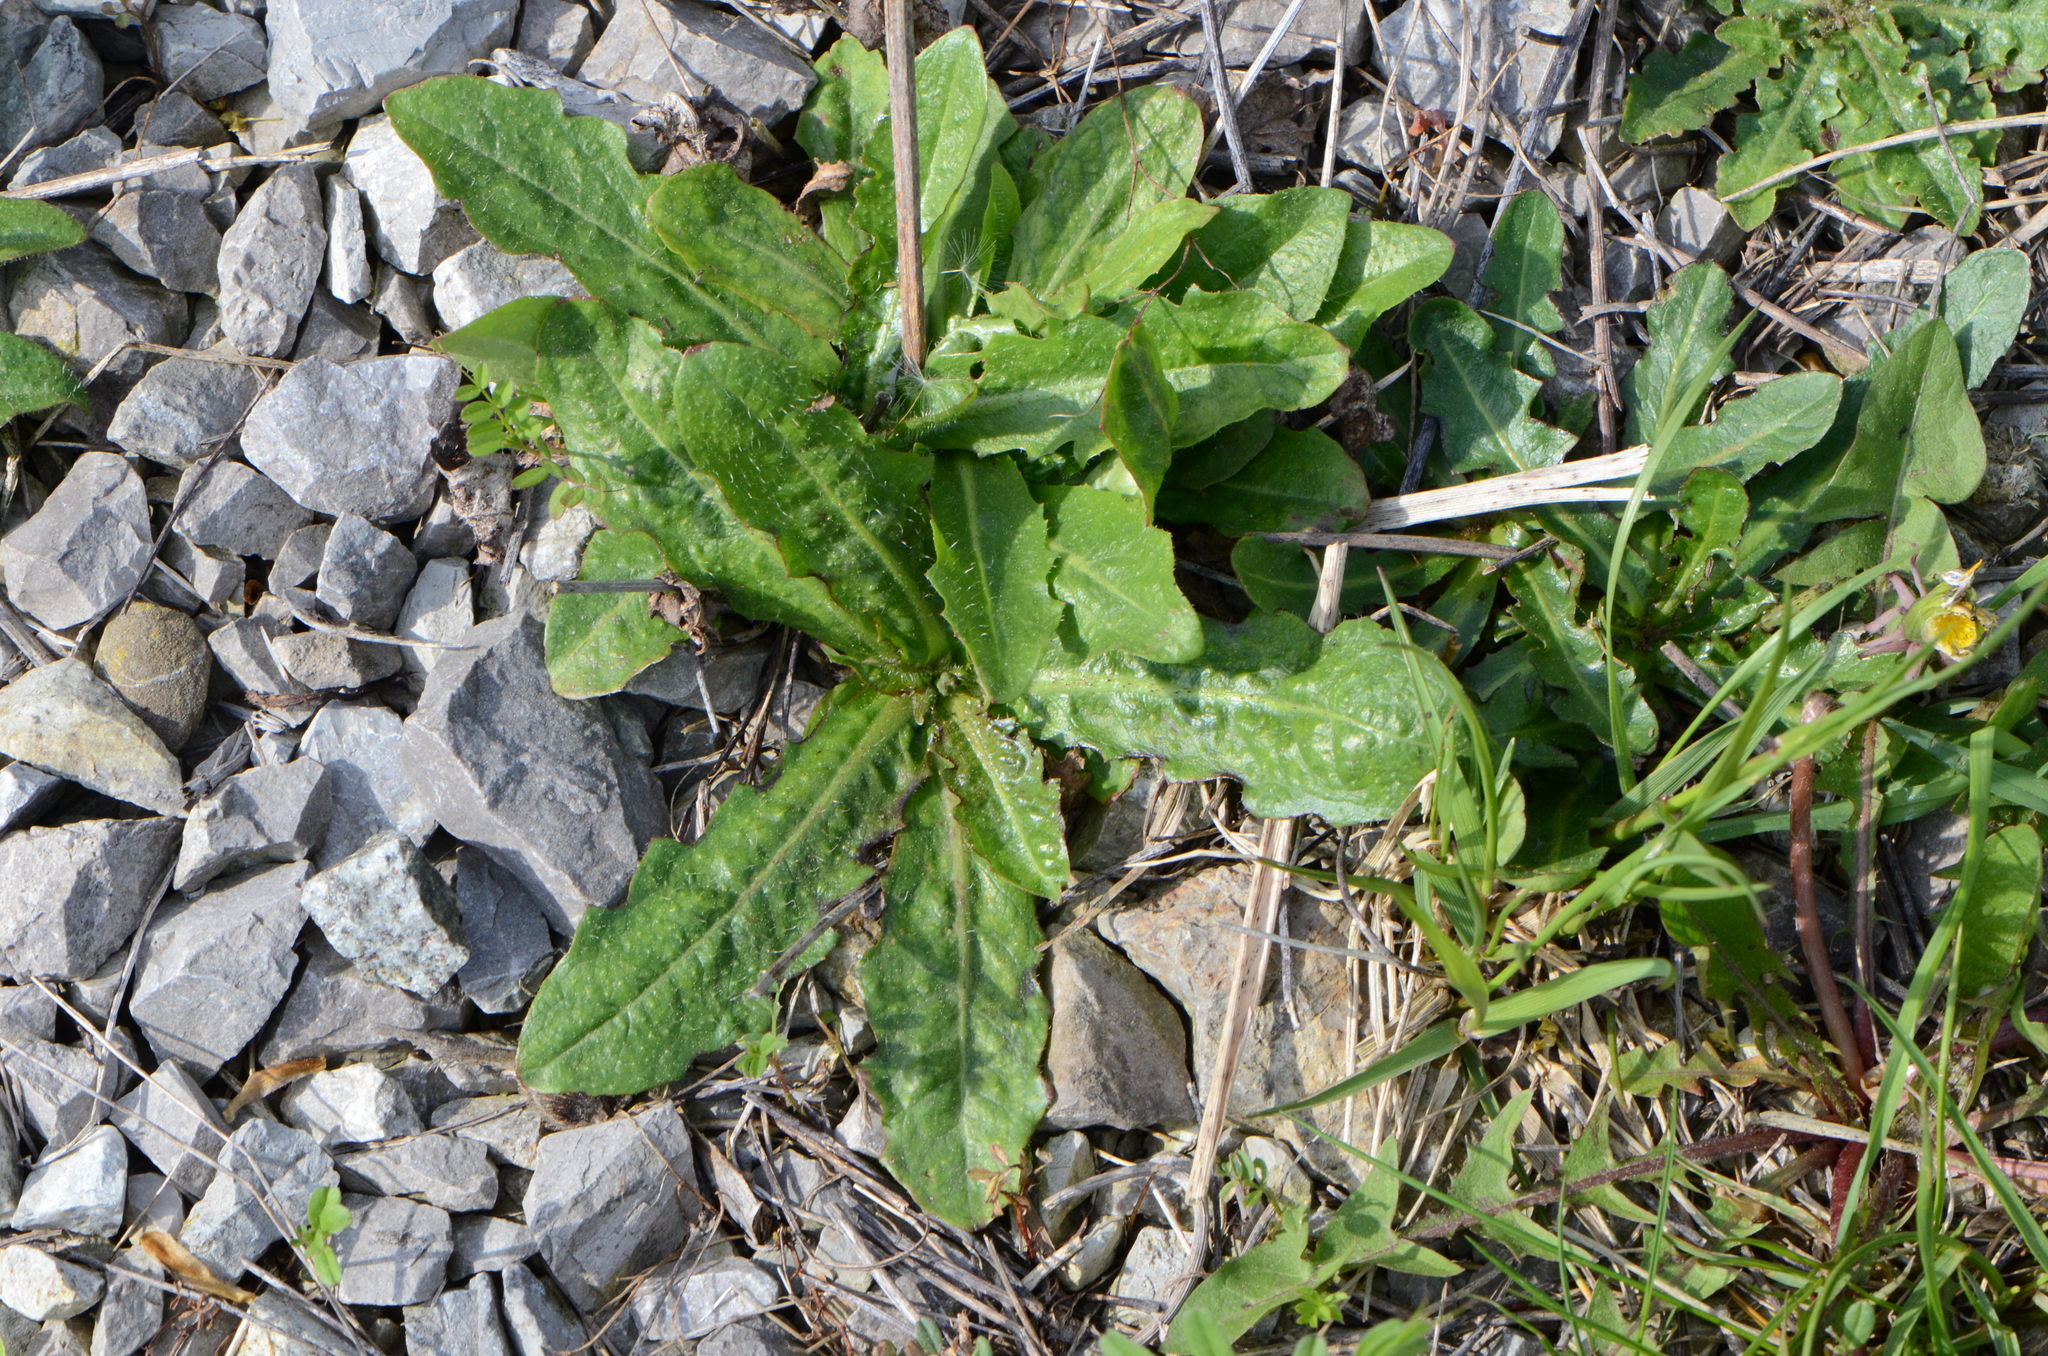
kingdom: Plantae
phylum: Tracheophyta
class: Magnoliopsida
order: Asterales
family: Asteraceae
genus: Hypochaeris
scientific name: Hypochaeris radicata
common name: Flatweed
